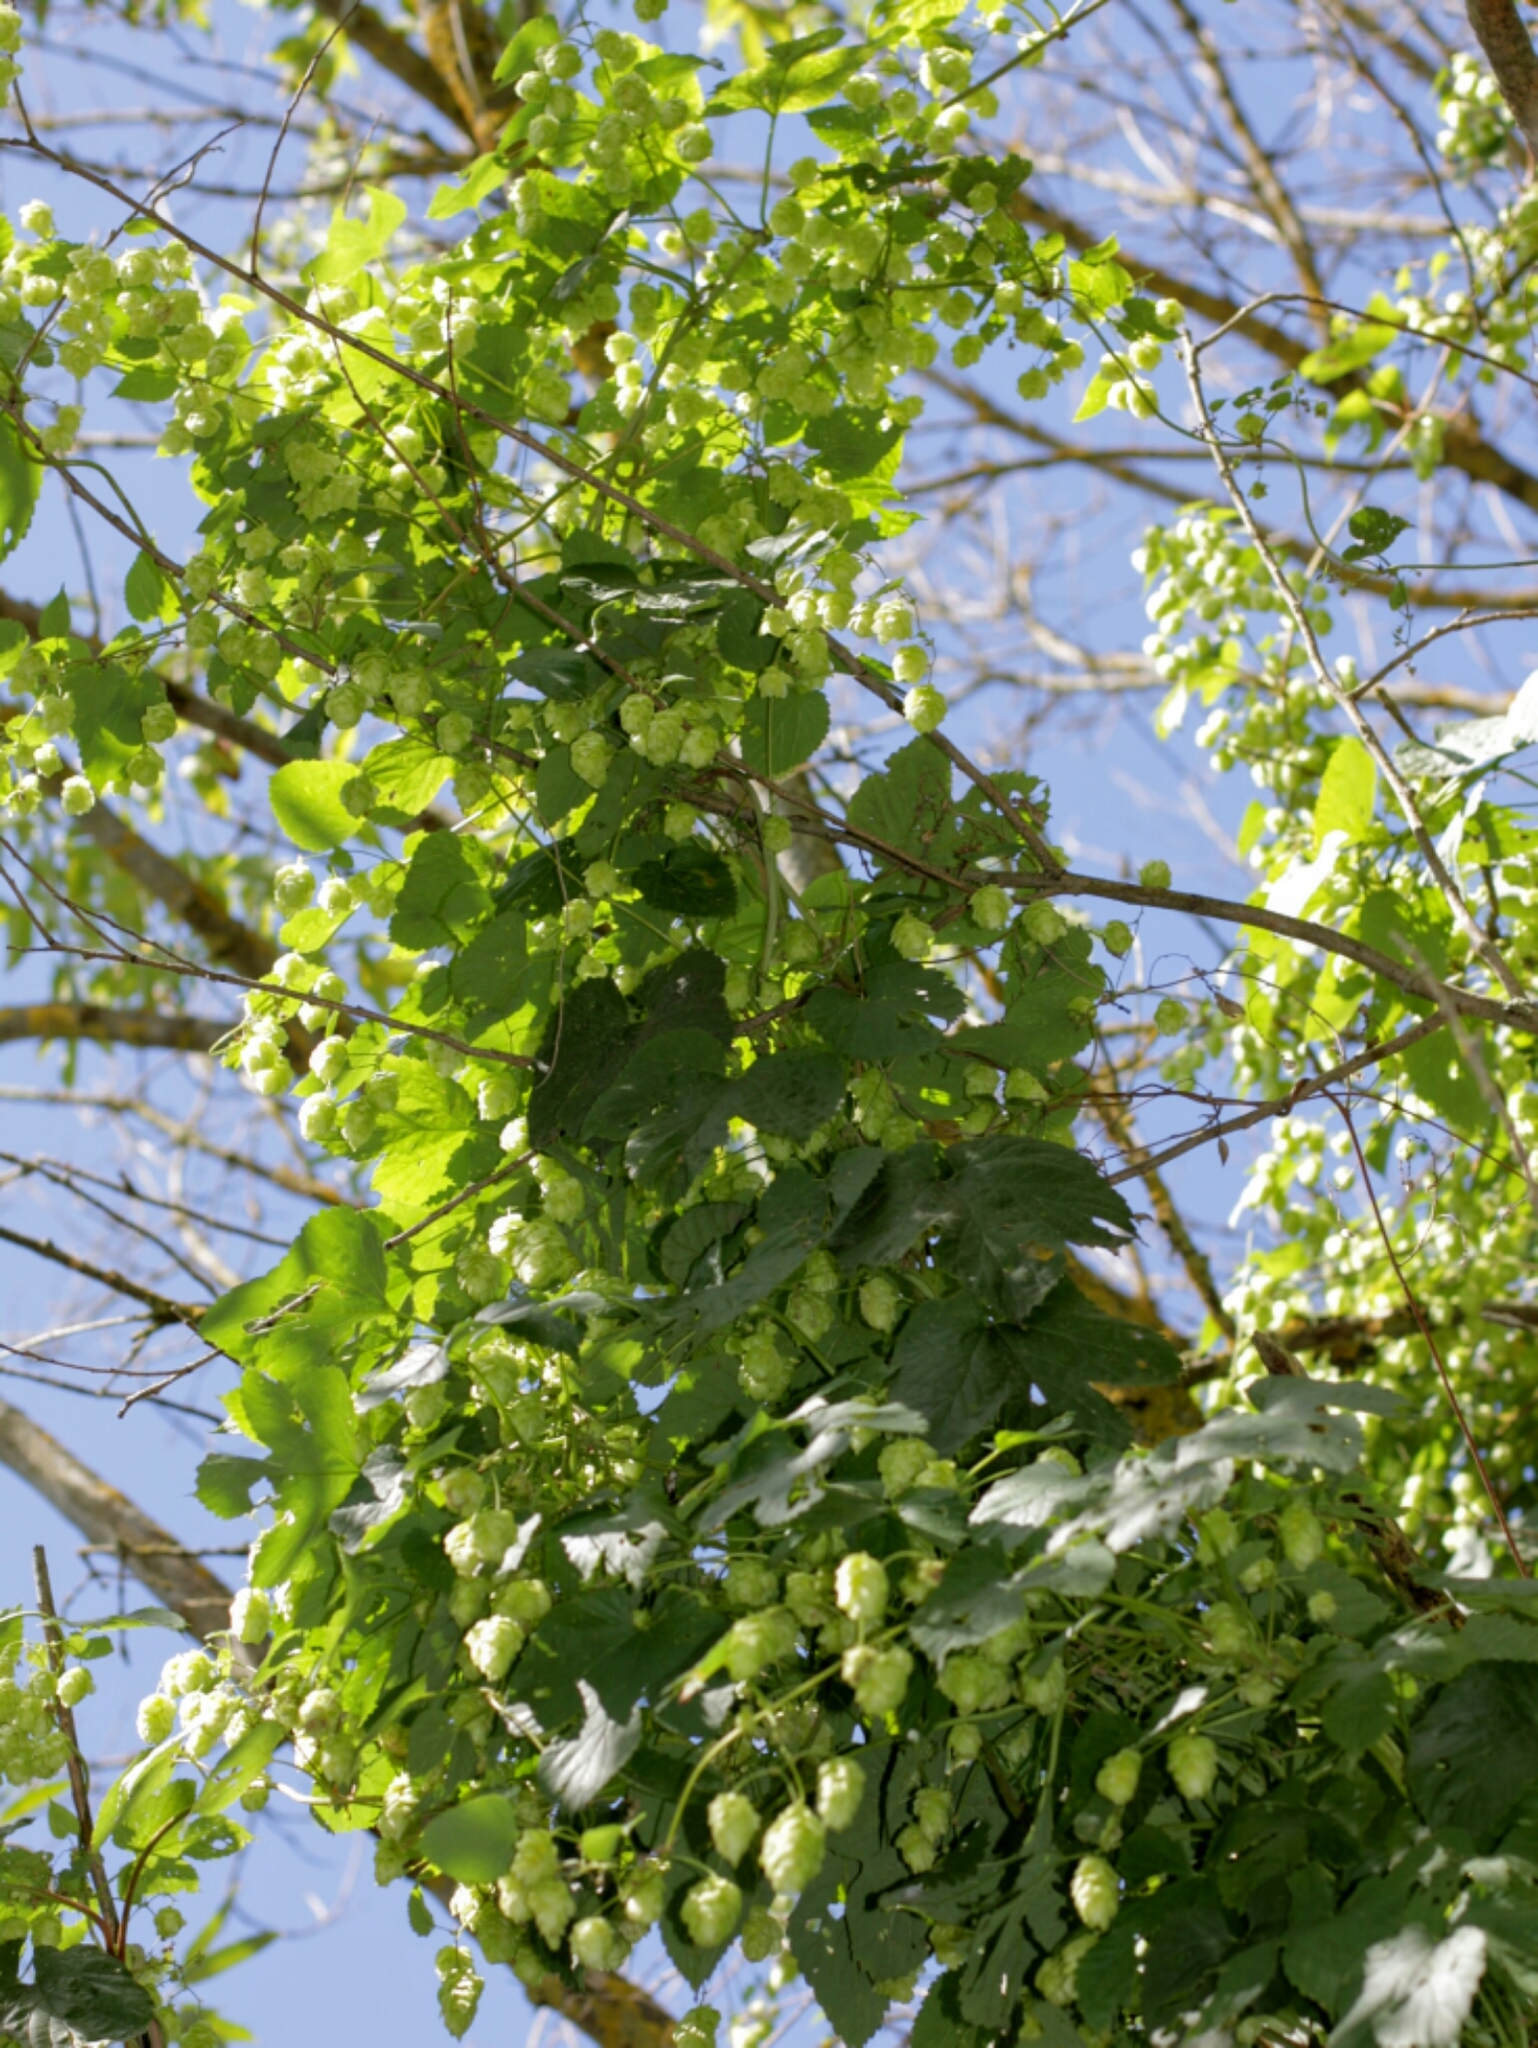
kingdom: Plantae
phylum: Tracheophyta
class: Magnoliopsida
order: Rosales
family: Cannabaceae
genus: Humulus
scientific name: Humulus lupulus
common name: Hop
